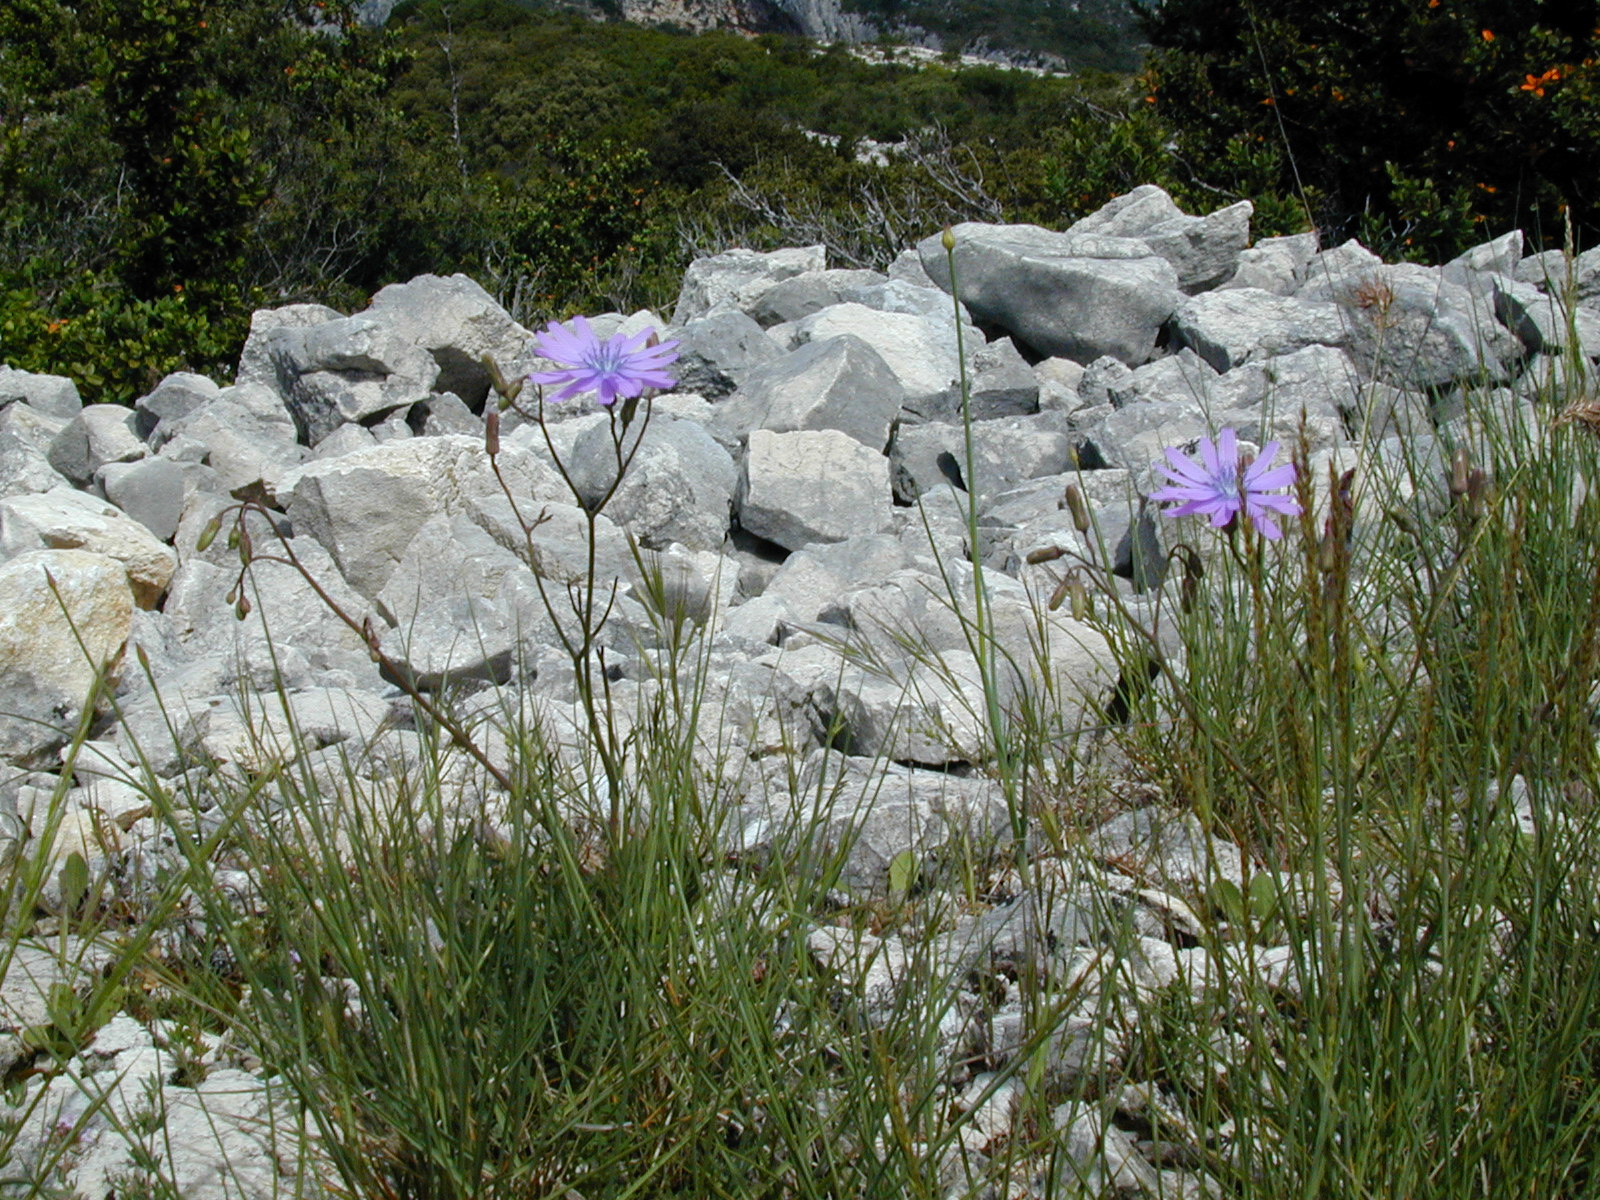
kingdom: Plantae
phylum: Tracheophyta
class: Magnoliopsida
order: Asterales
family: Asteraceae
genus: Lactuca
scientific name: Lactuca perennis
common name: Mountain lettuce
